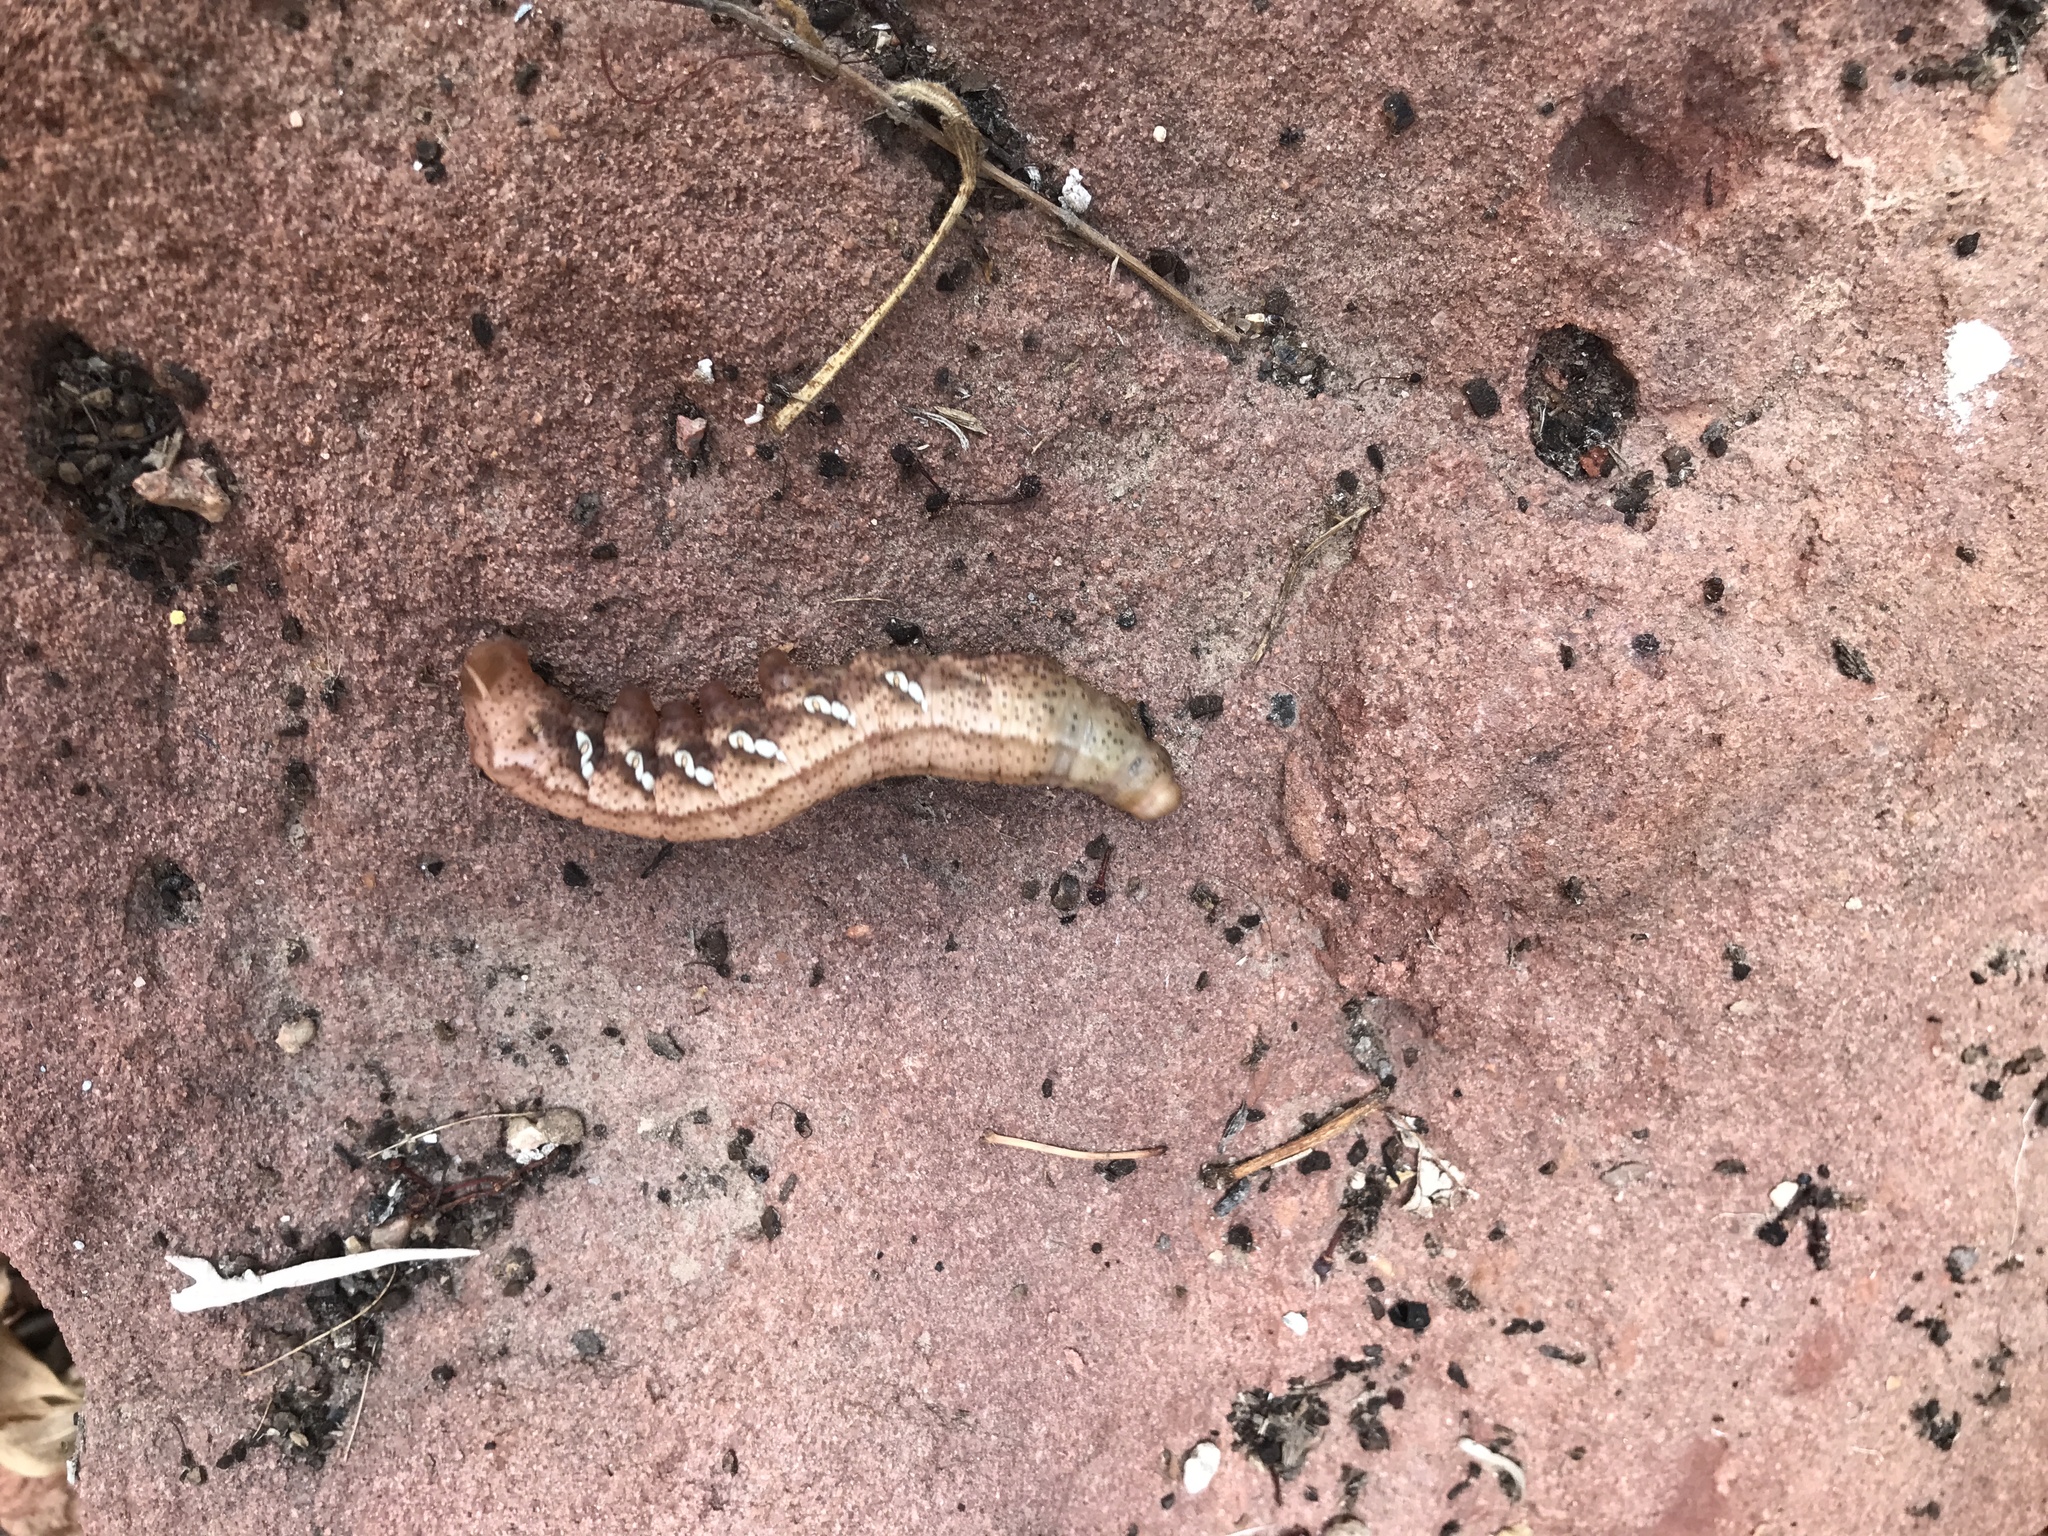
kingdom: Animalia
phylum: Arthropoda
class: Insecta
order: Lepidoptera
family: Sphingidae
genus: Eumorpha
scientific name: Eumorpha achemon
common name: Achemon sphinx
